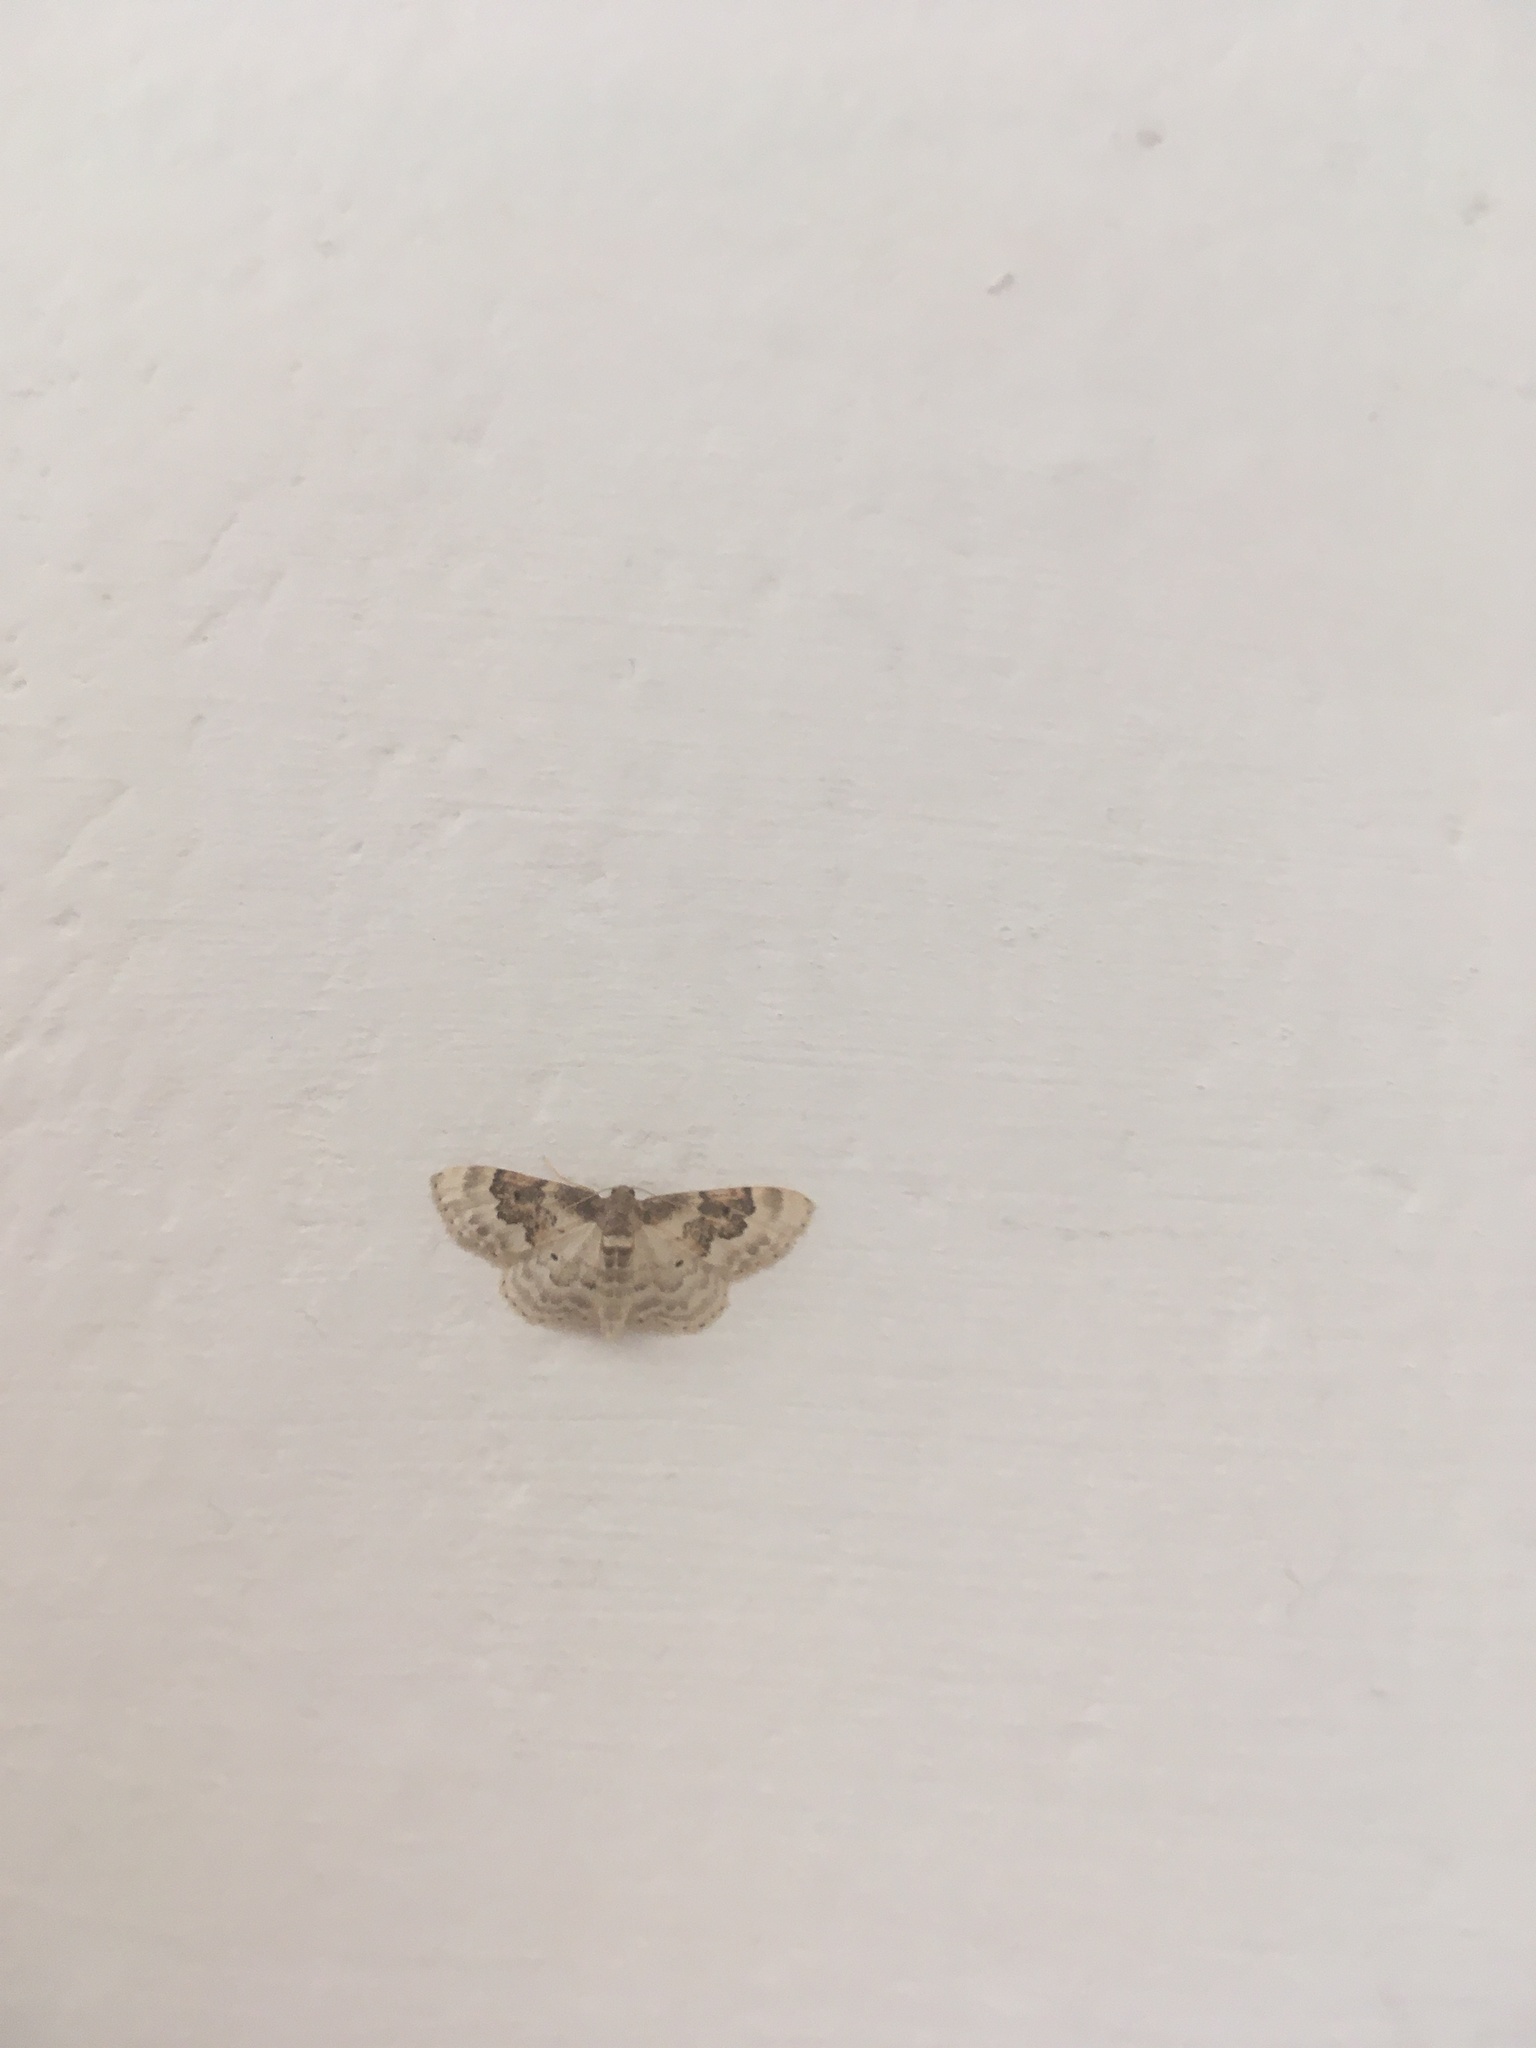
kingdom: Animalia
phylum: Arthropoda
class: Insecta
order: Lepidoptera
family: Geometridae
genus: Idaea
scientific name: Idaea rusticata
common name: Least carpet
